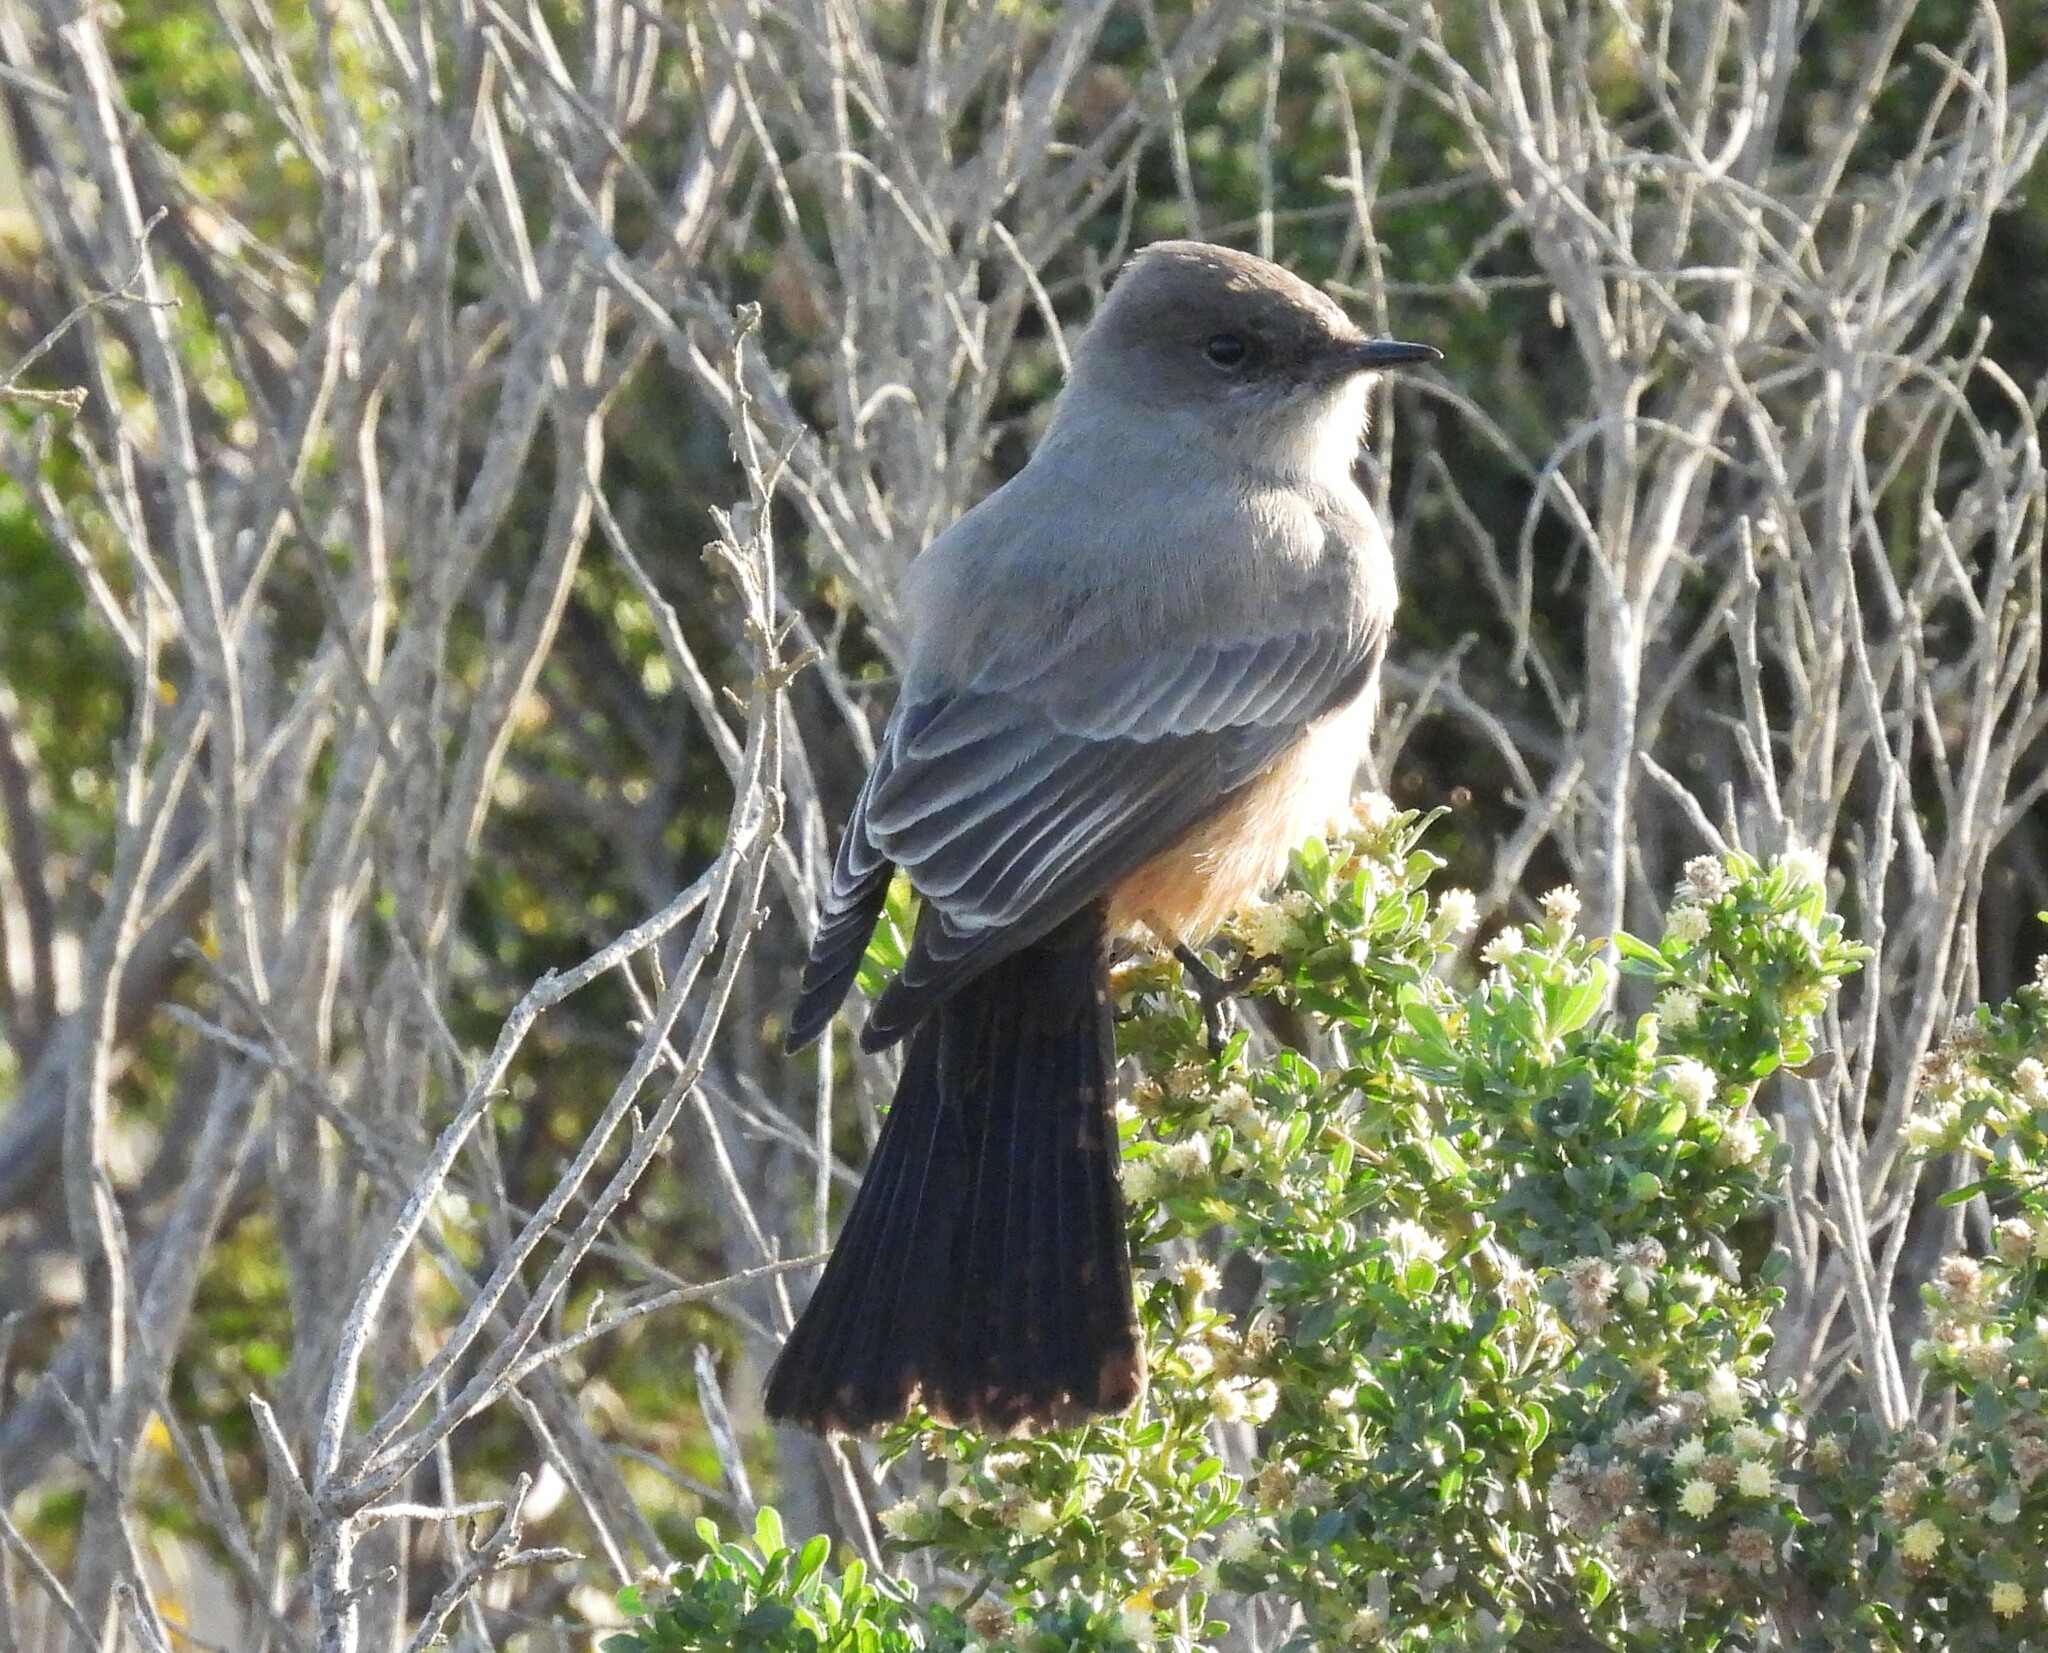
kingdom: Animalia
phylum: Chordata
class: Aves
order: Passeriformes
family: Tyrannidae
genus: Sayornis
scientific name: Sayornis saya
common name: Say's phoebe
